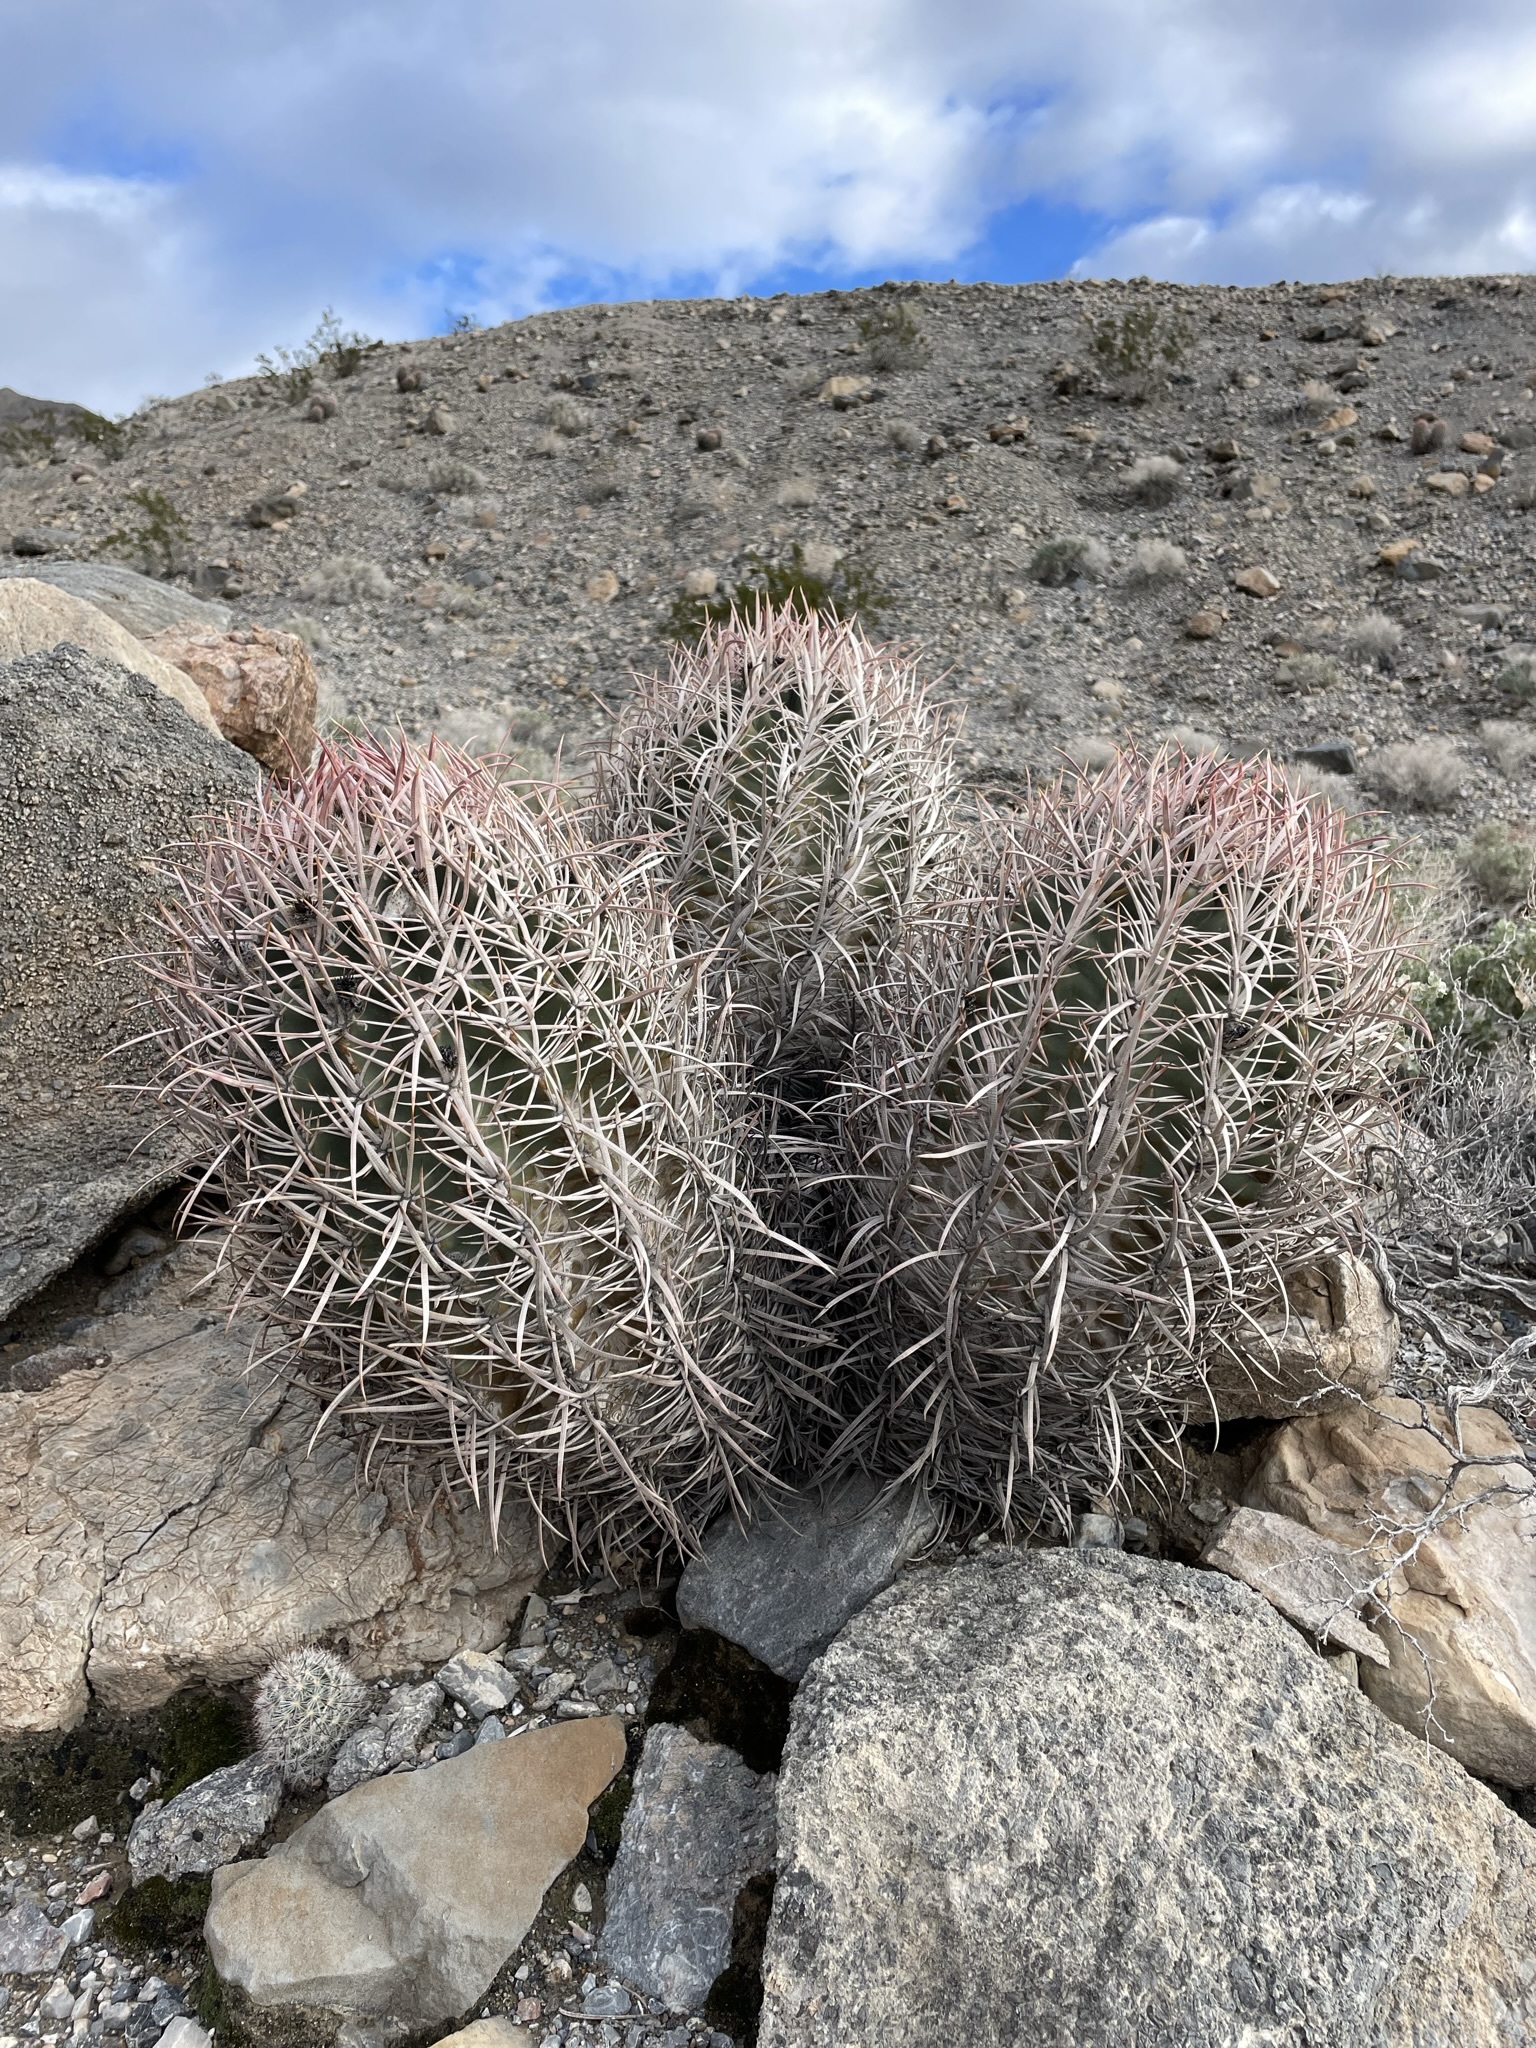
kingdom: Plantae
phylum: Tracheophyta
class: Magnoliopsida
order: Caryophyllales
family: Cactaceae
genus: Echinocactus
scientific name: Echinocactus polycephalus
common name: Cottontop cactus
